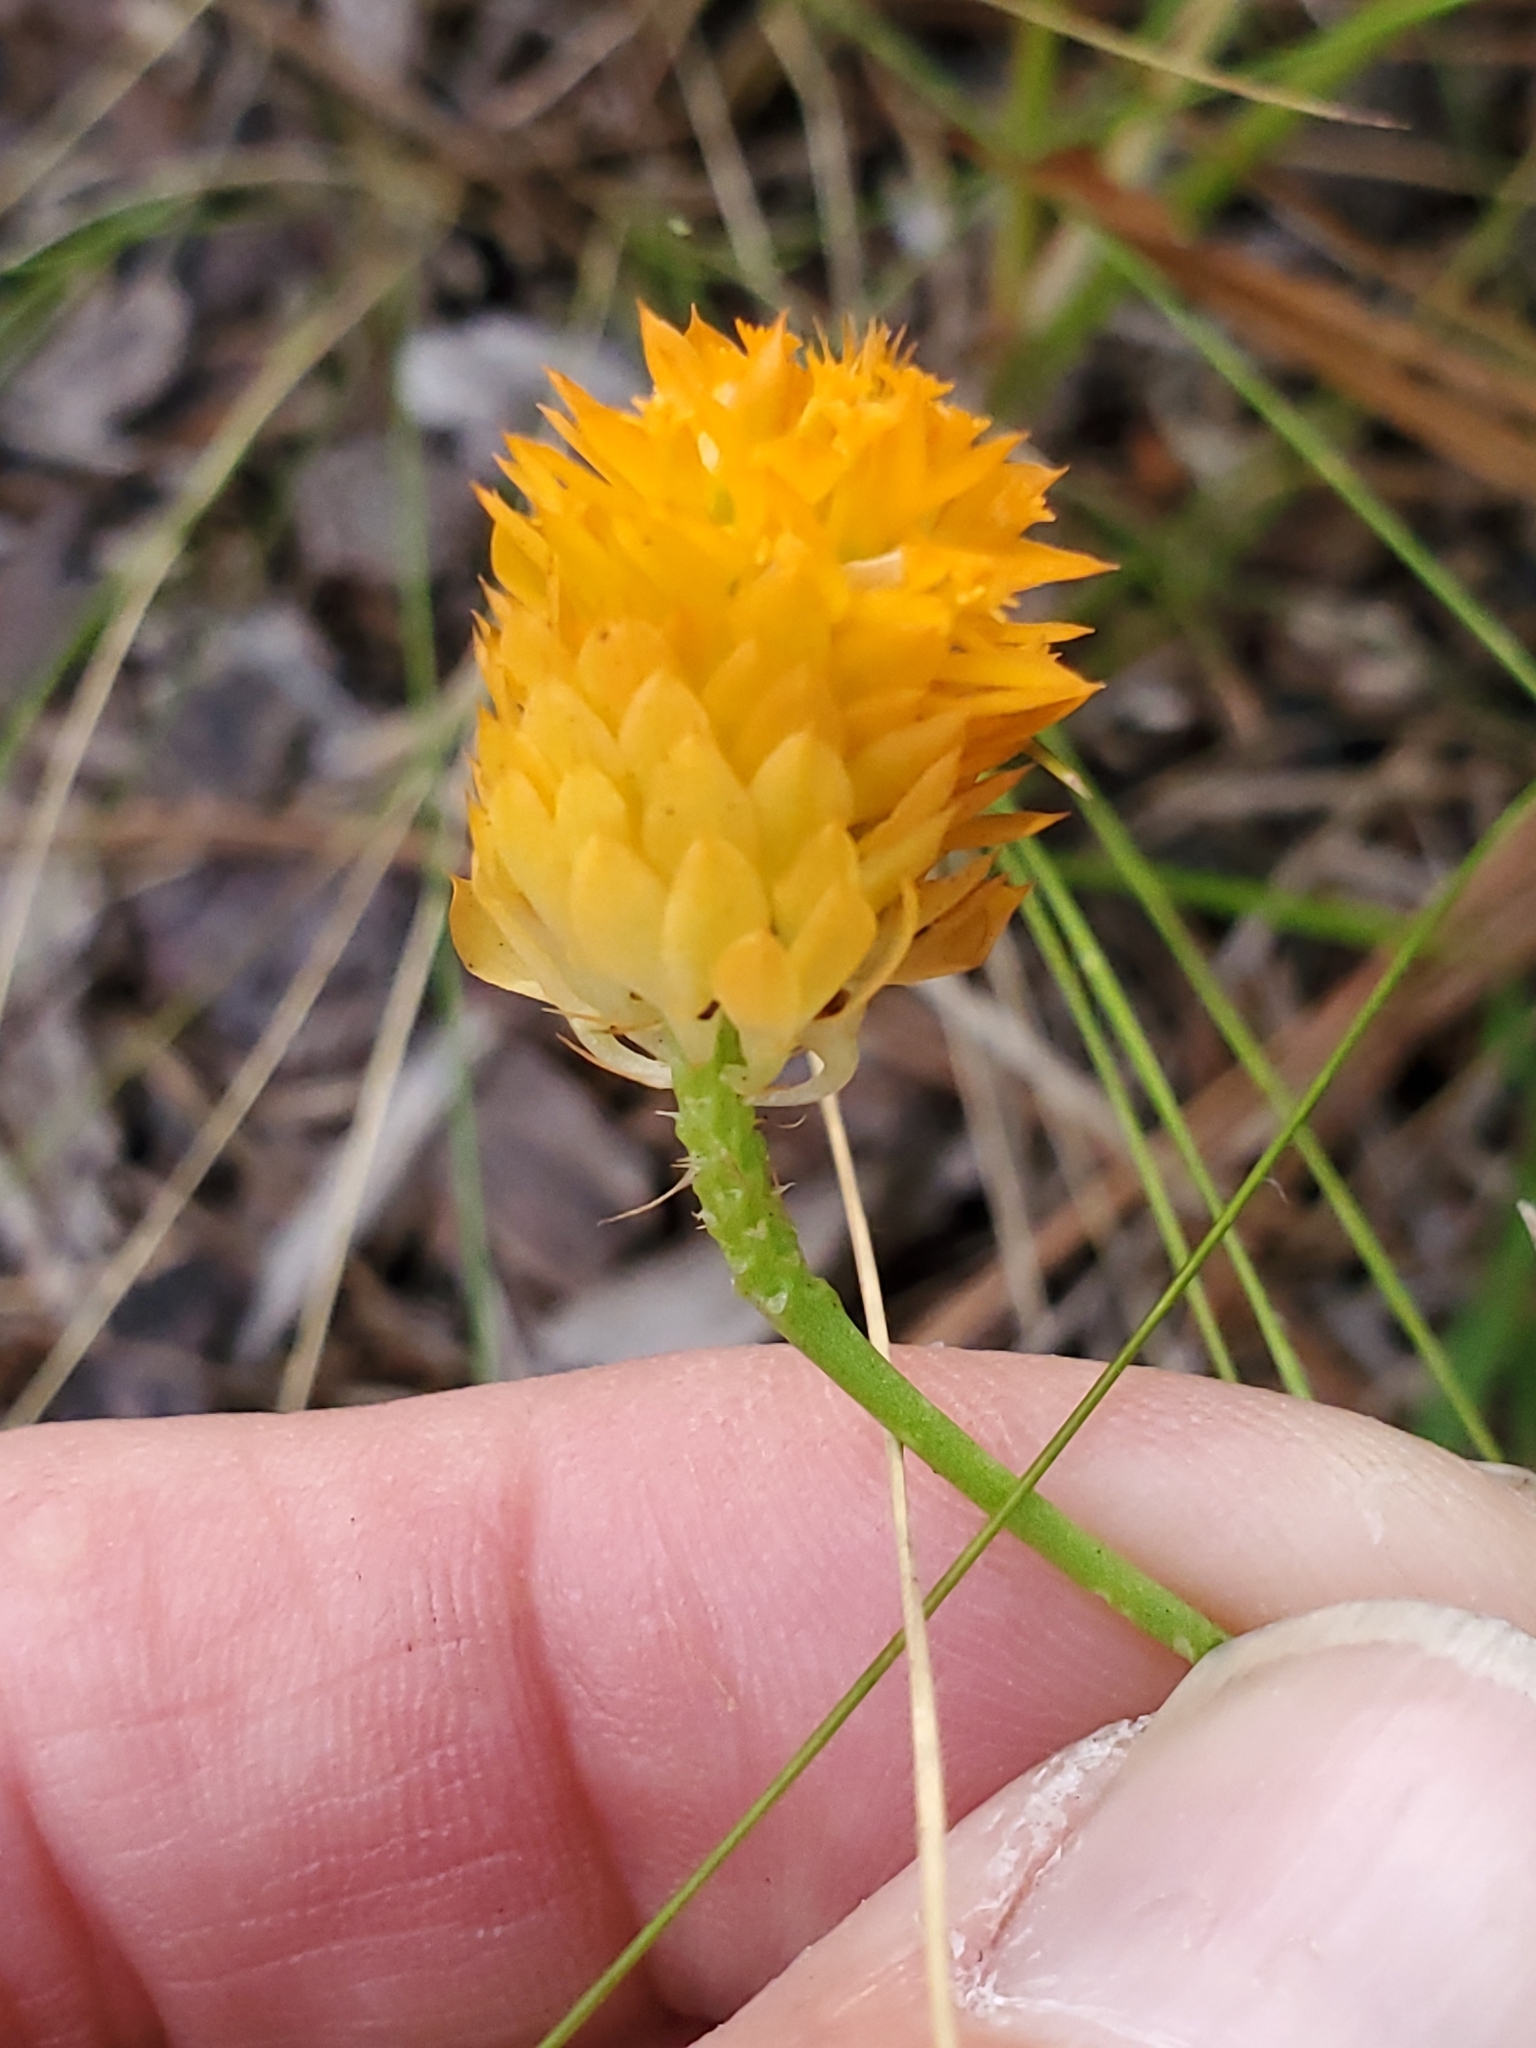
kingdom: Plantae
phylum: Tracheophyta
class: Magnoliopsida
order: Fabales
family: Polygalaceae
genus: Polygala
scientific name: Polygala lutea
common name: Orange milkwort
